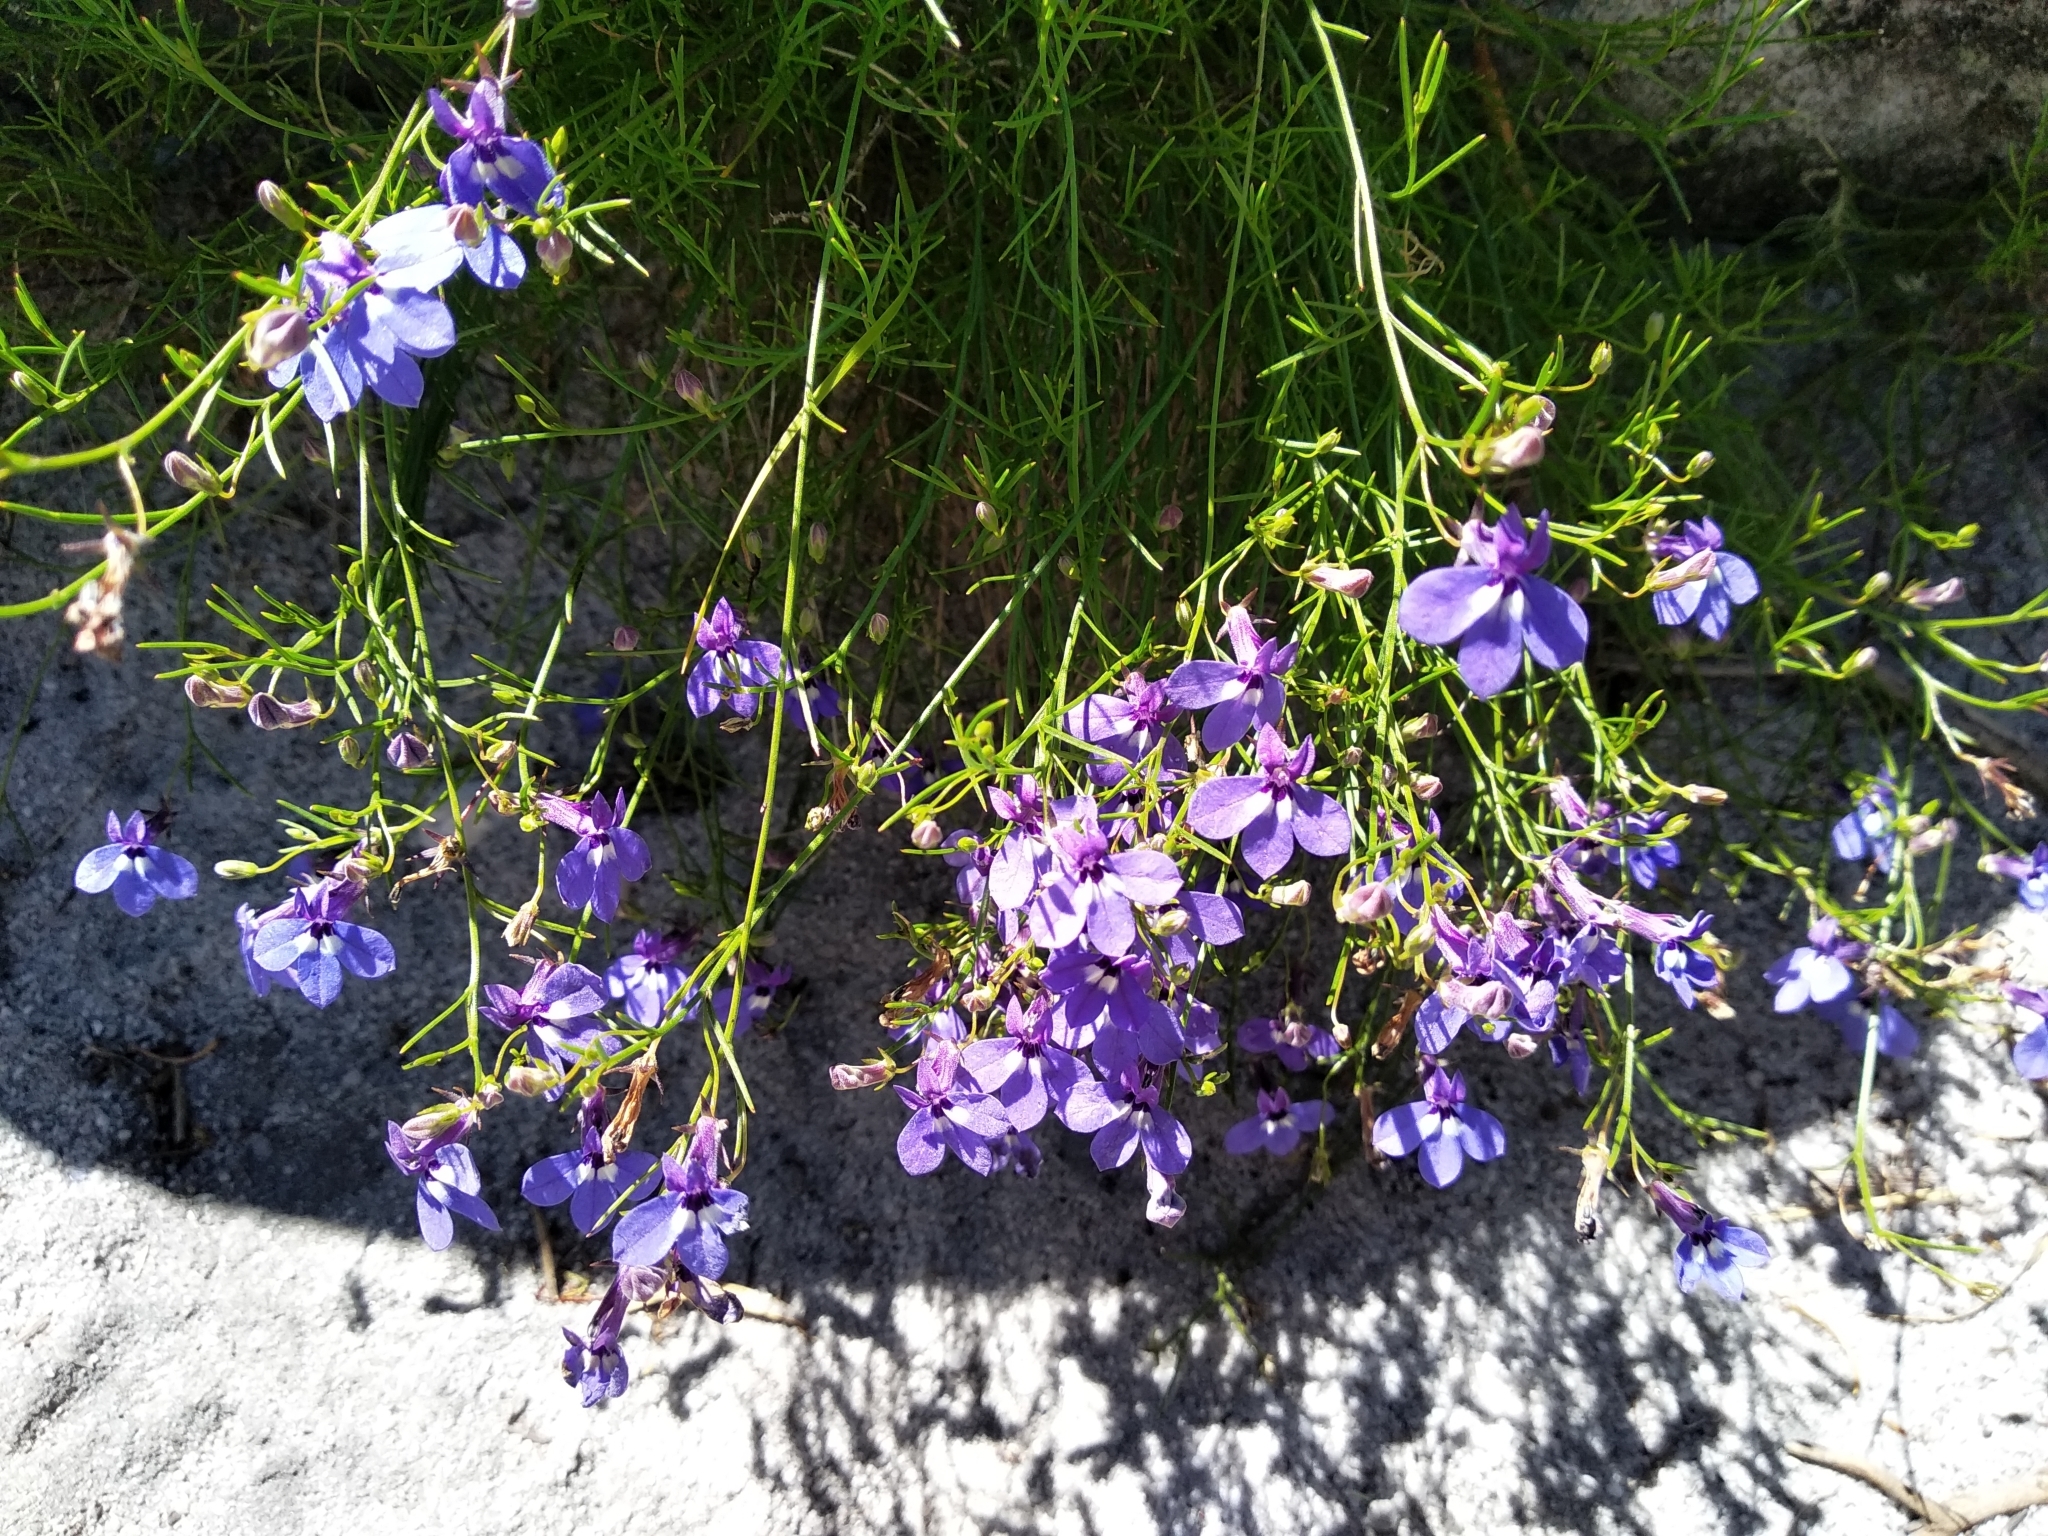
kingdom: Plantae
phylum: Tracheophyta
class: Magnoliopsida
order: Asterales
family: Campanulaceae
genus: Lobelia
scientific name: Lobelia setacea
